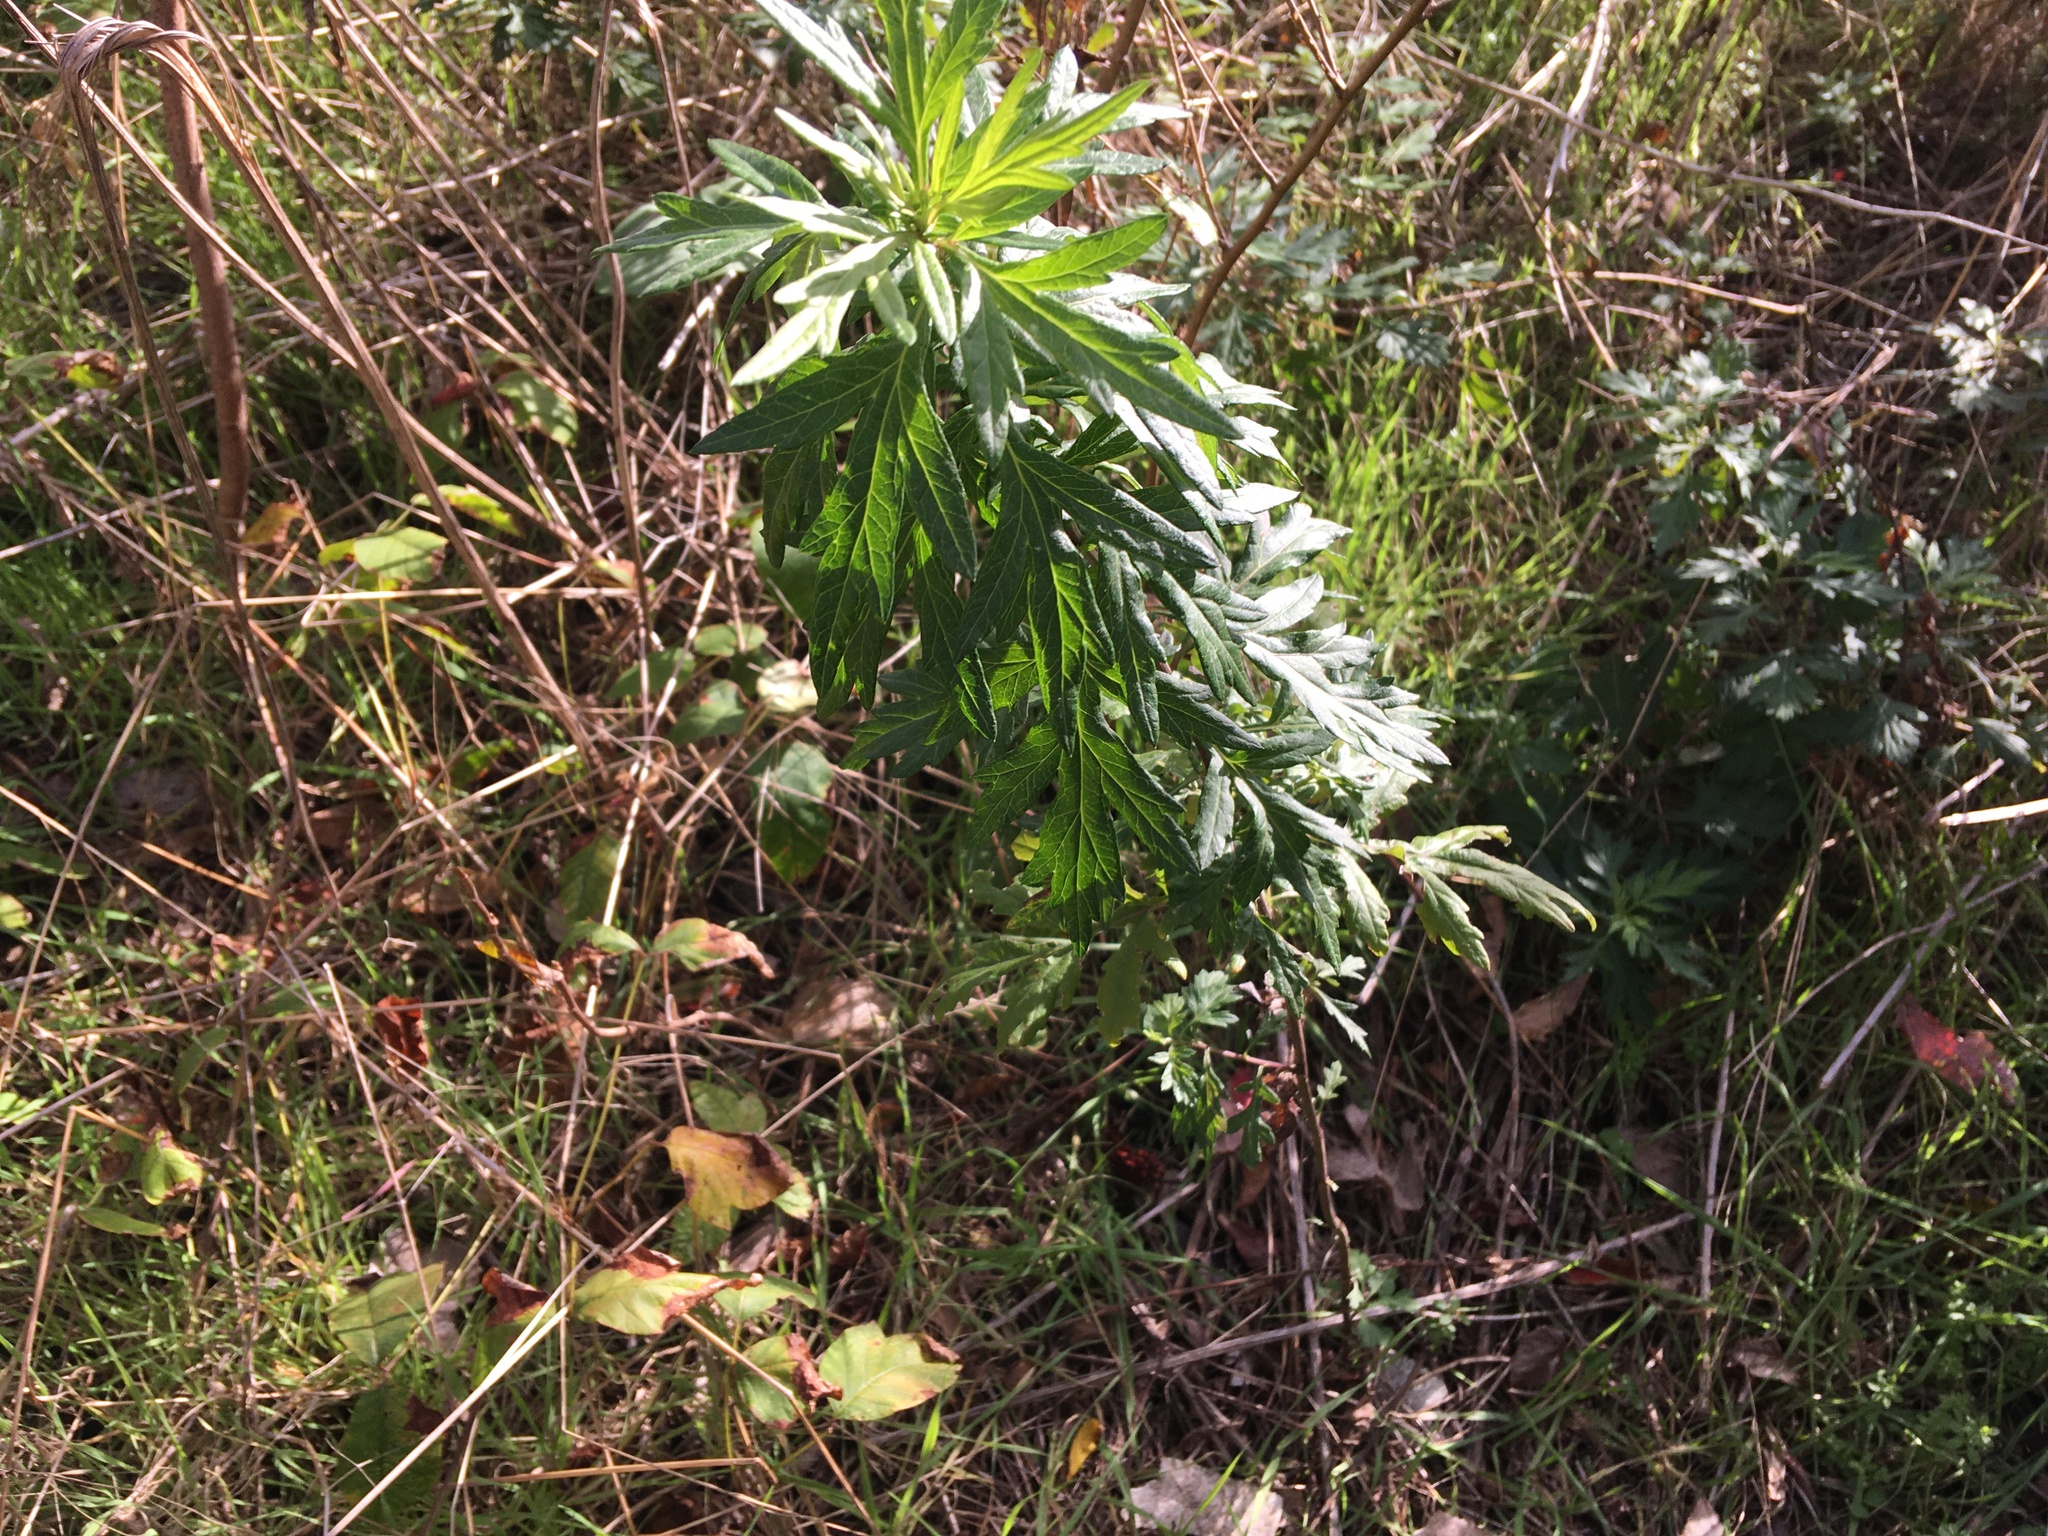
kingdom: Plantae
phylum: Tracheophyta
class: Magnoliopsida
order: Asterales
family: Asteraceae
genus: Artemisia
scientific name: Artemisia vulgaris
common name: Mugwort
